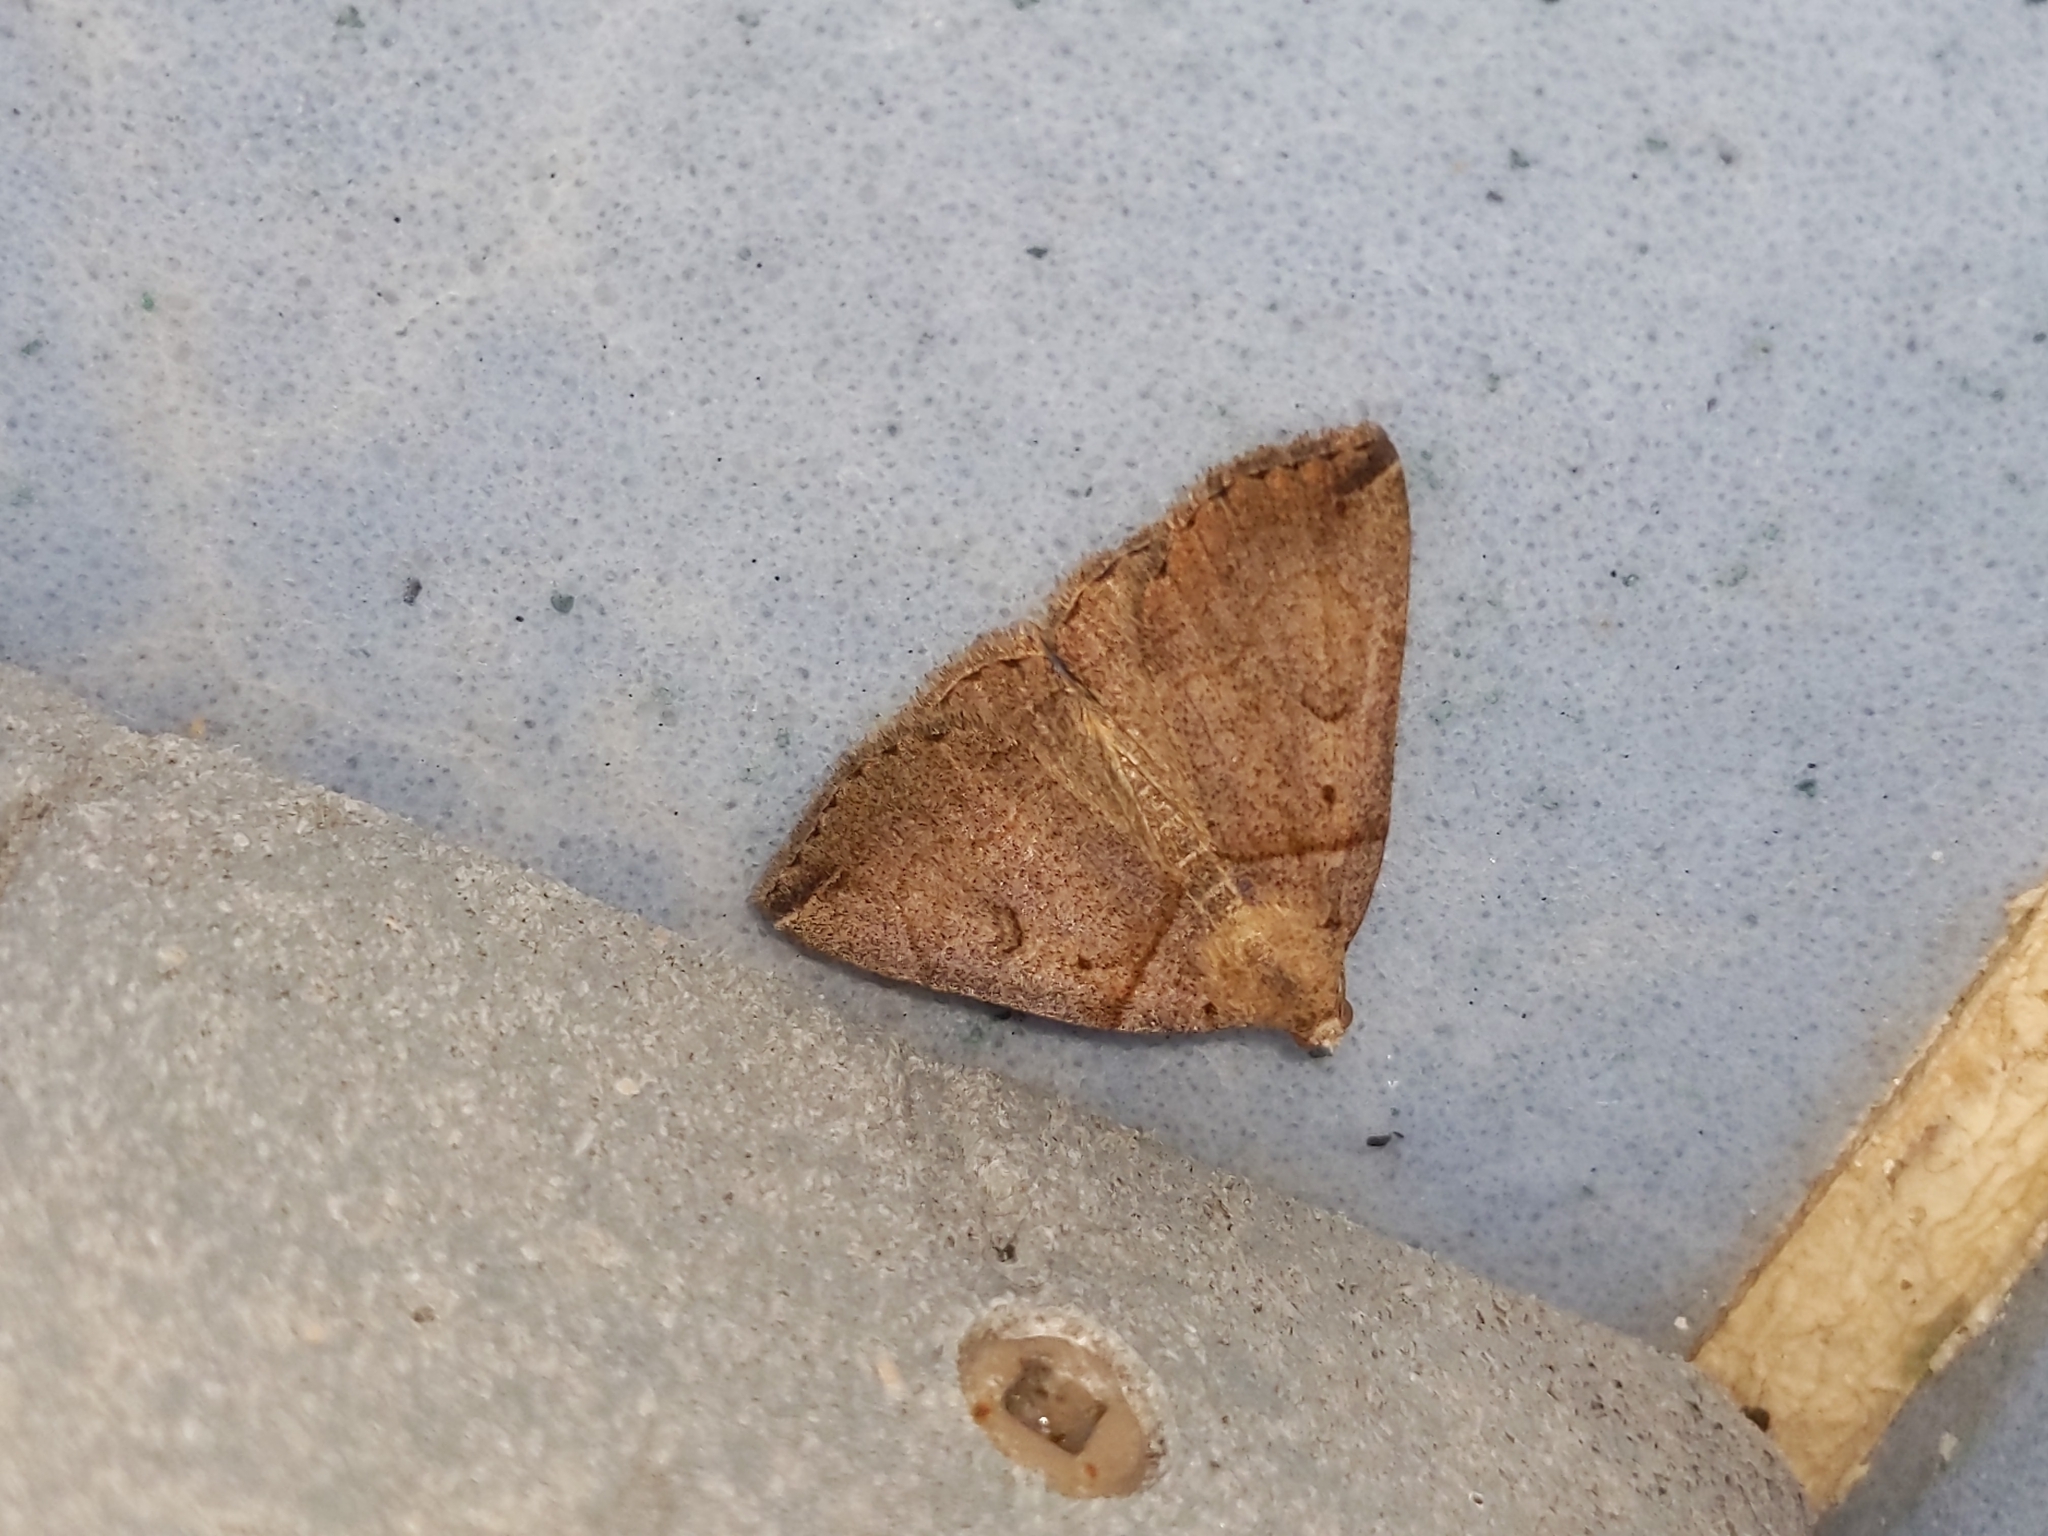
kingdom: Animalia
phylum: Arthropoda
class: Insecta
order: Lepidoptera
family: Erebidae
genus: Zanclognatha
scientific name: Zanclognatha laevigata
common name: Variable fan-foot
